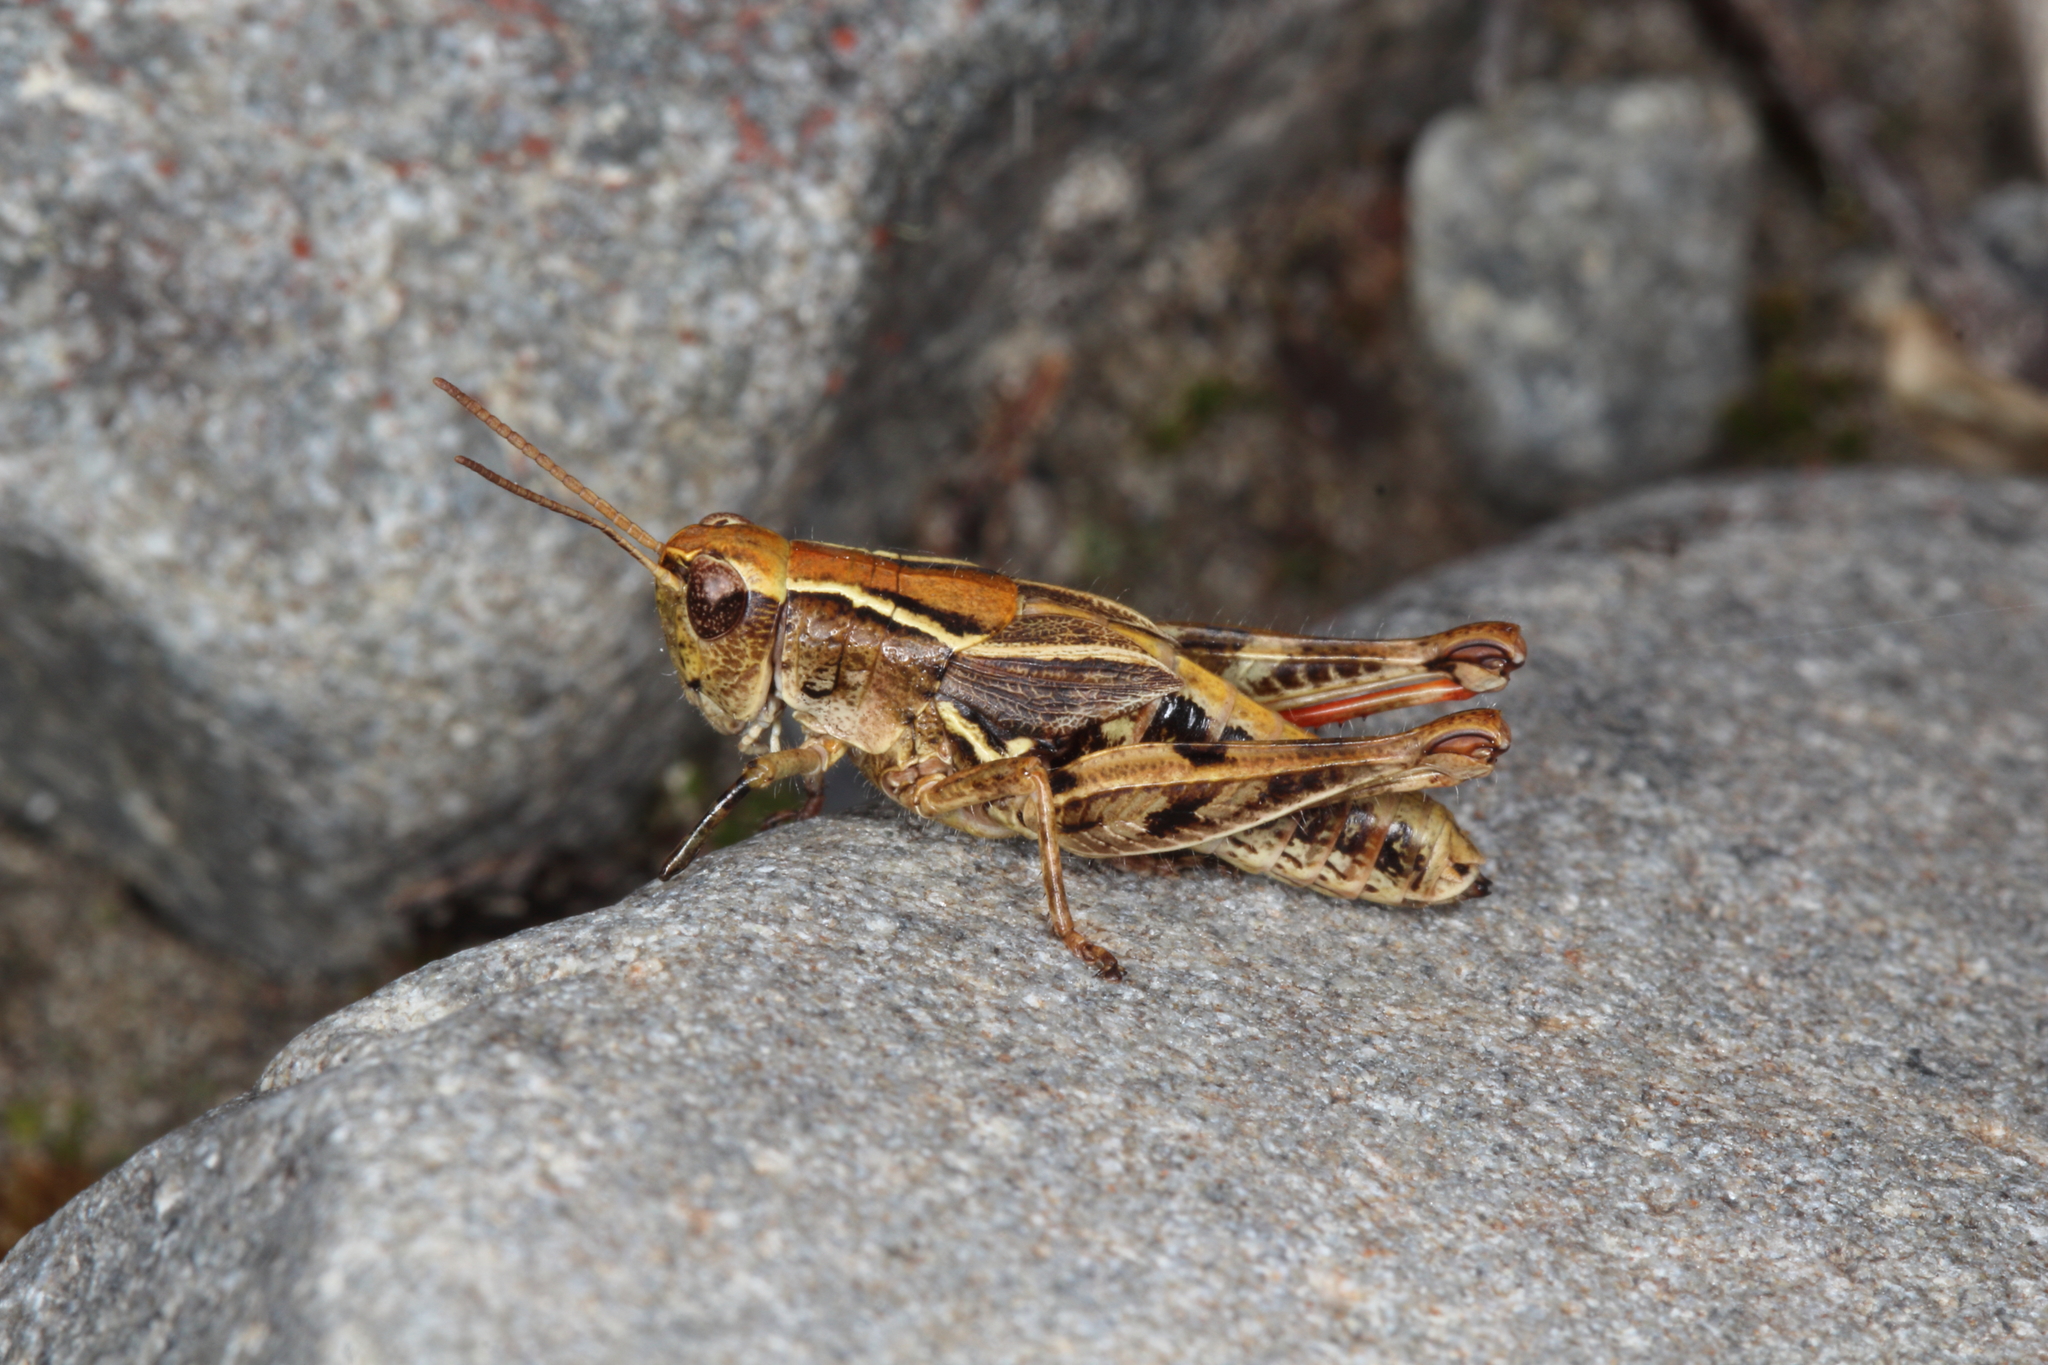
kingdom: Animalia
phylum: Arthropoda
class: Insecta
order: Orthoptera
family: Acrididae
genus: Phaulacridium
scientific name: Phaulacridium marginale
